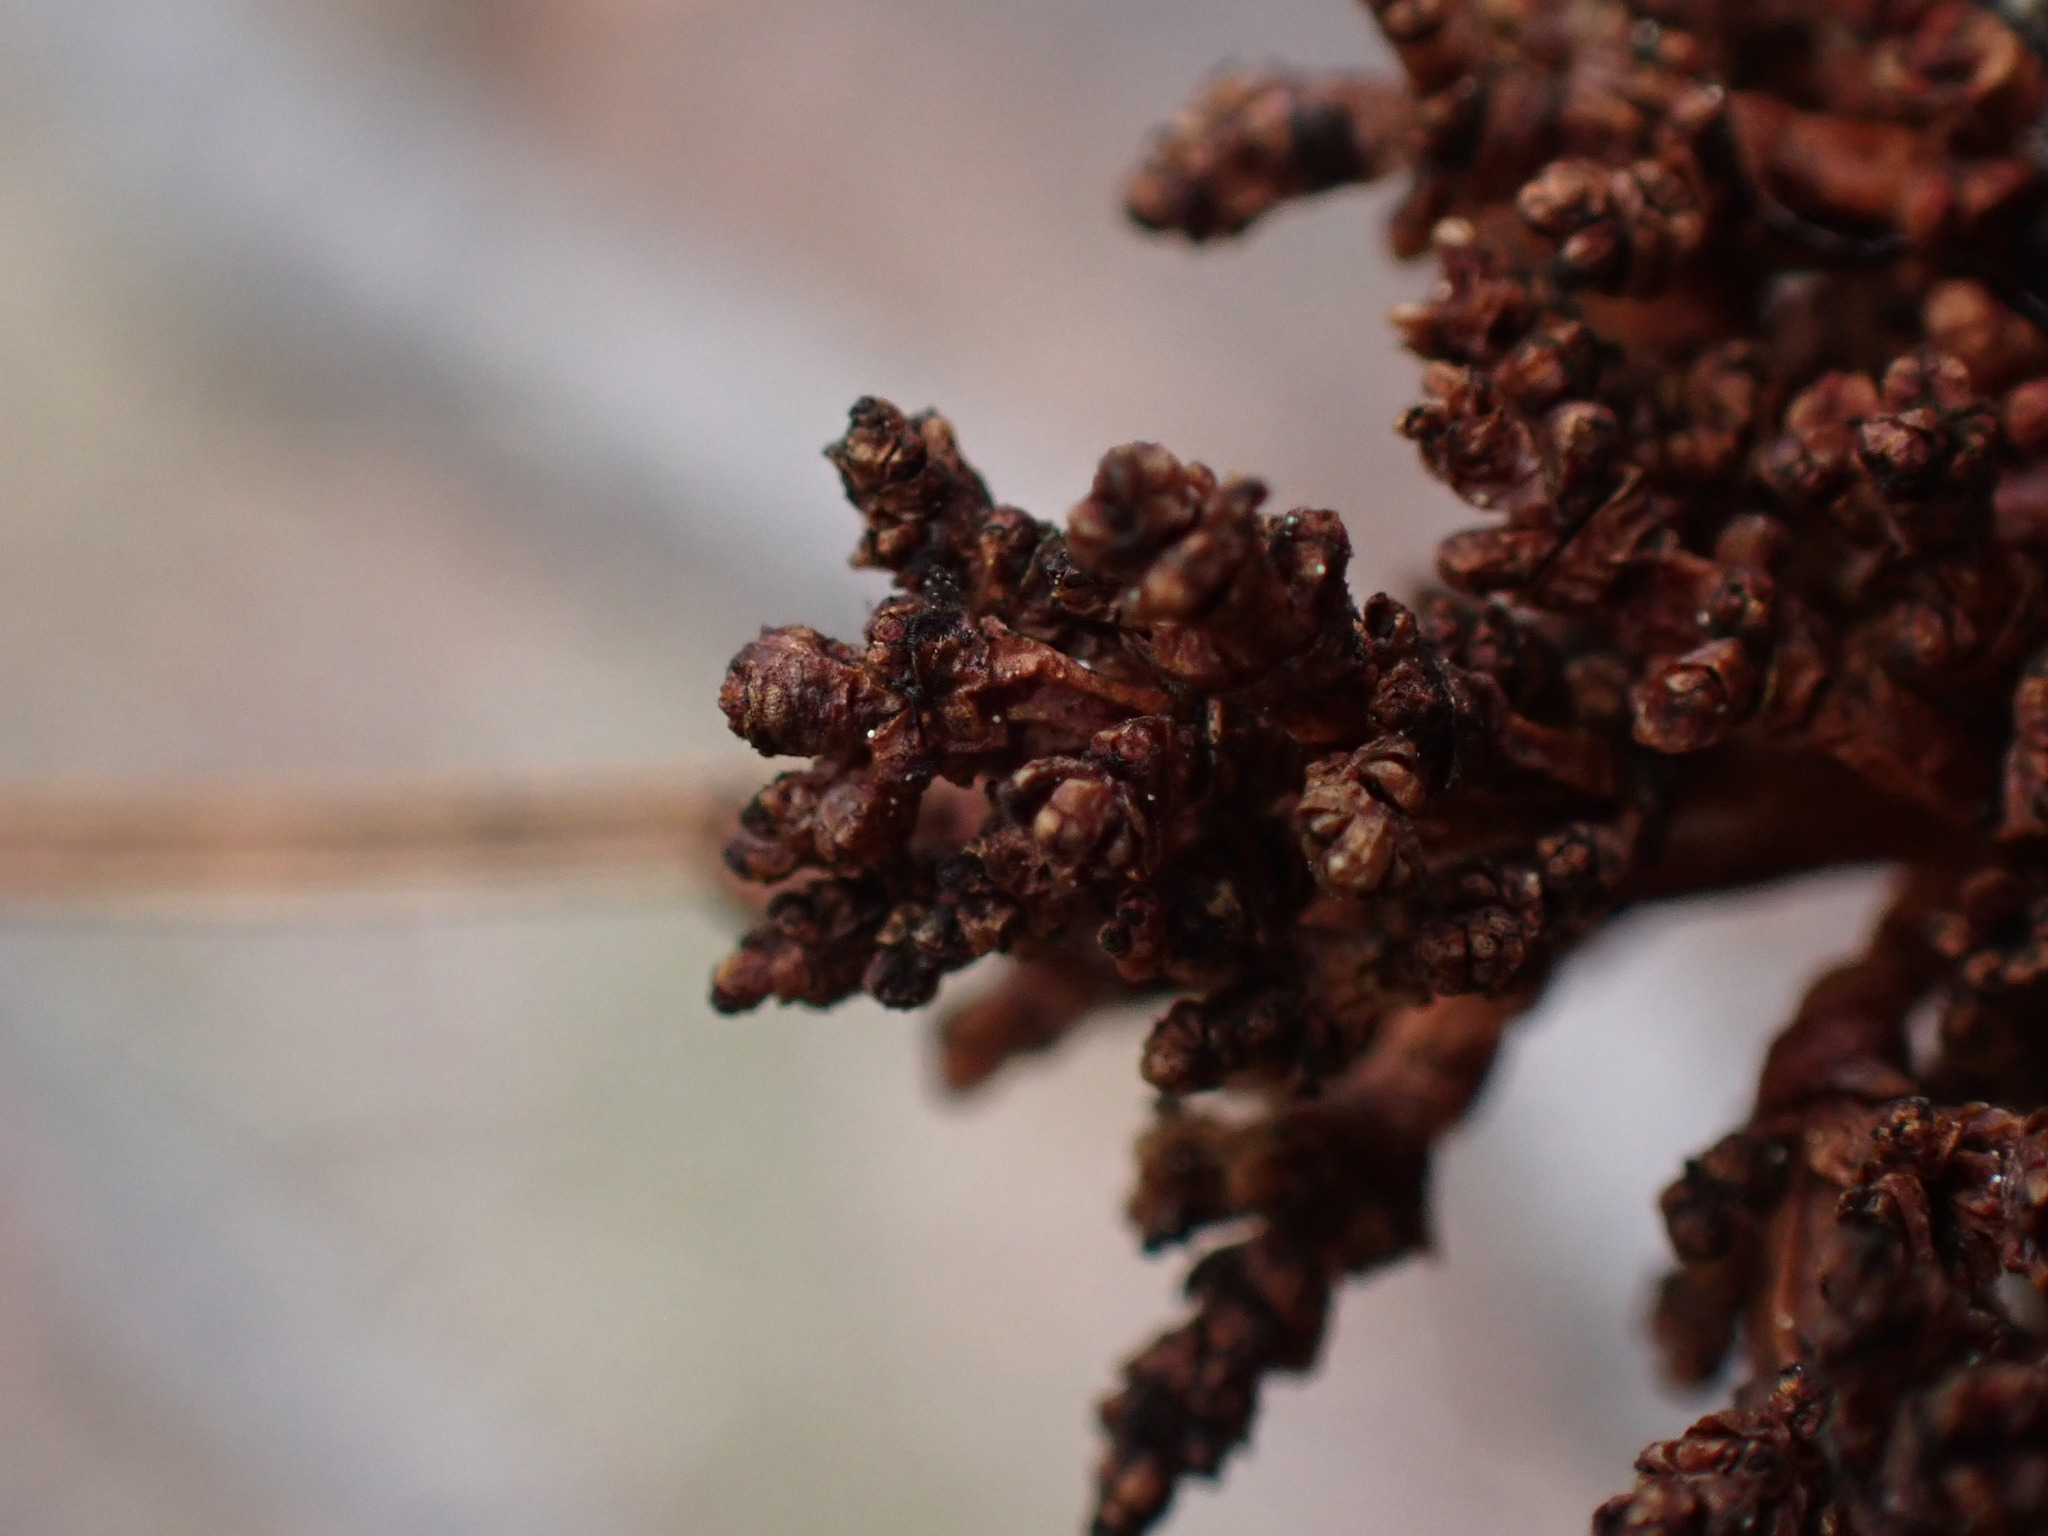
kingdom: Plantae
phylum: Tracheophyta
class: Magnoliopsida
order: Santalales
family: Viscaceae
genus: Arceuthobium
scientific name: Arceuthobium americanum
